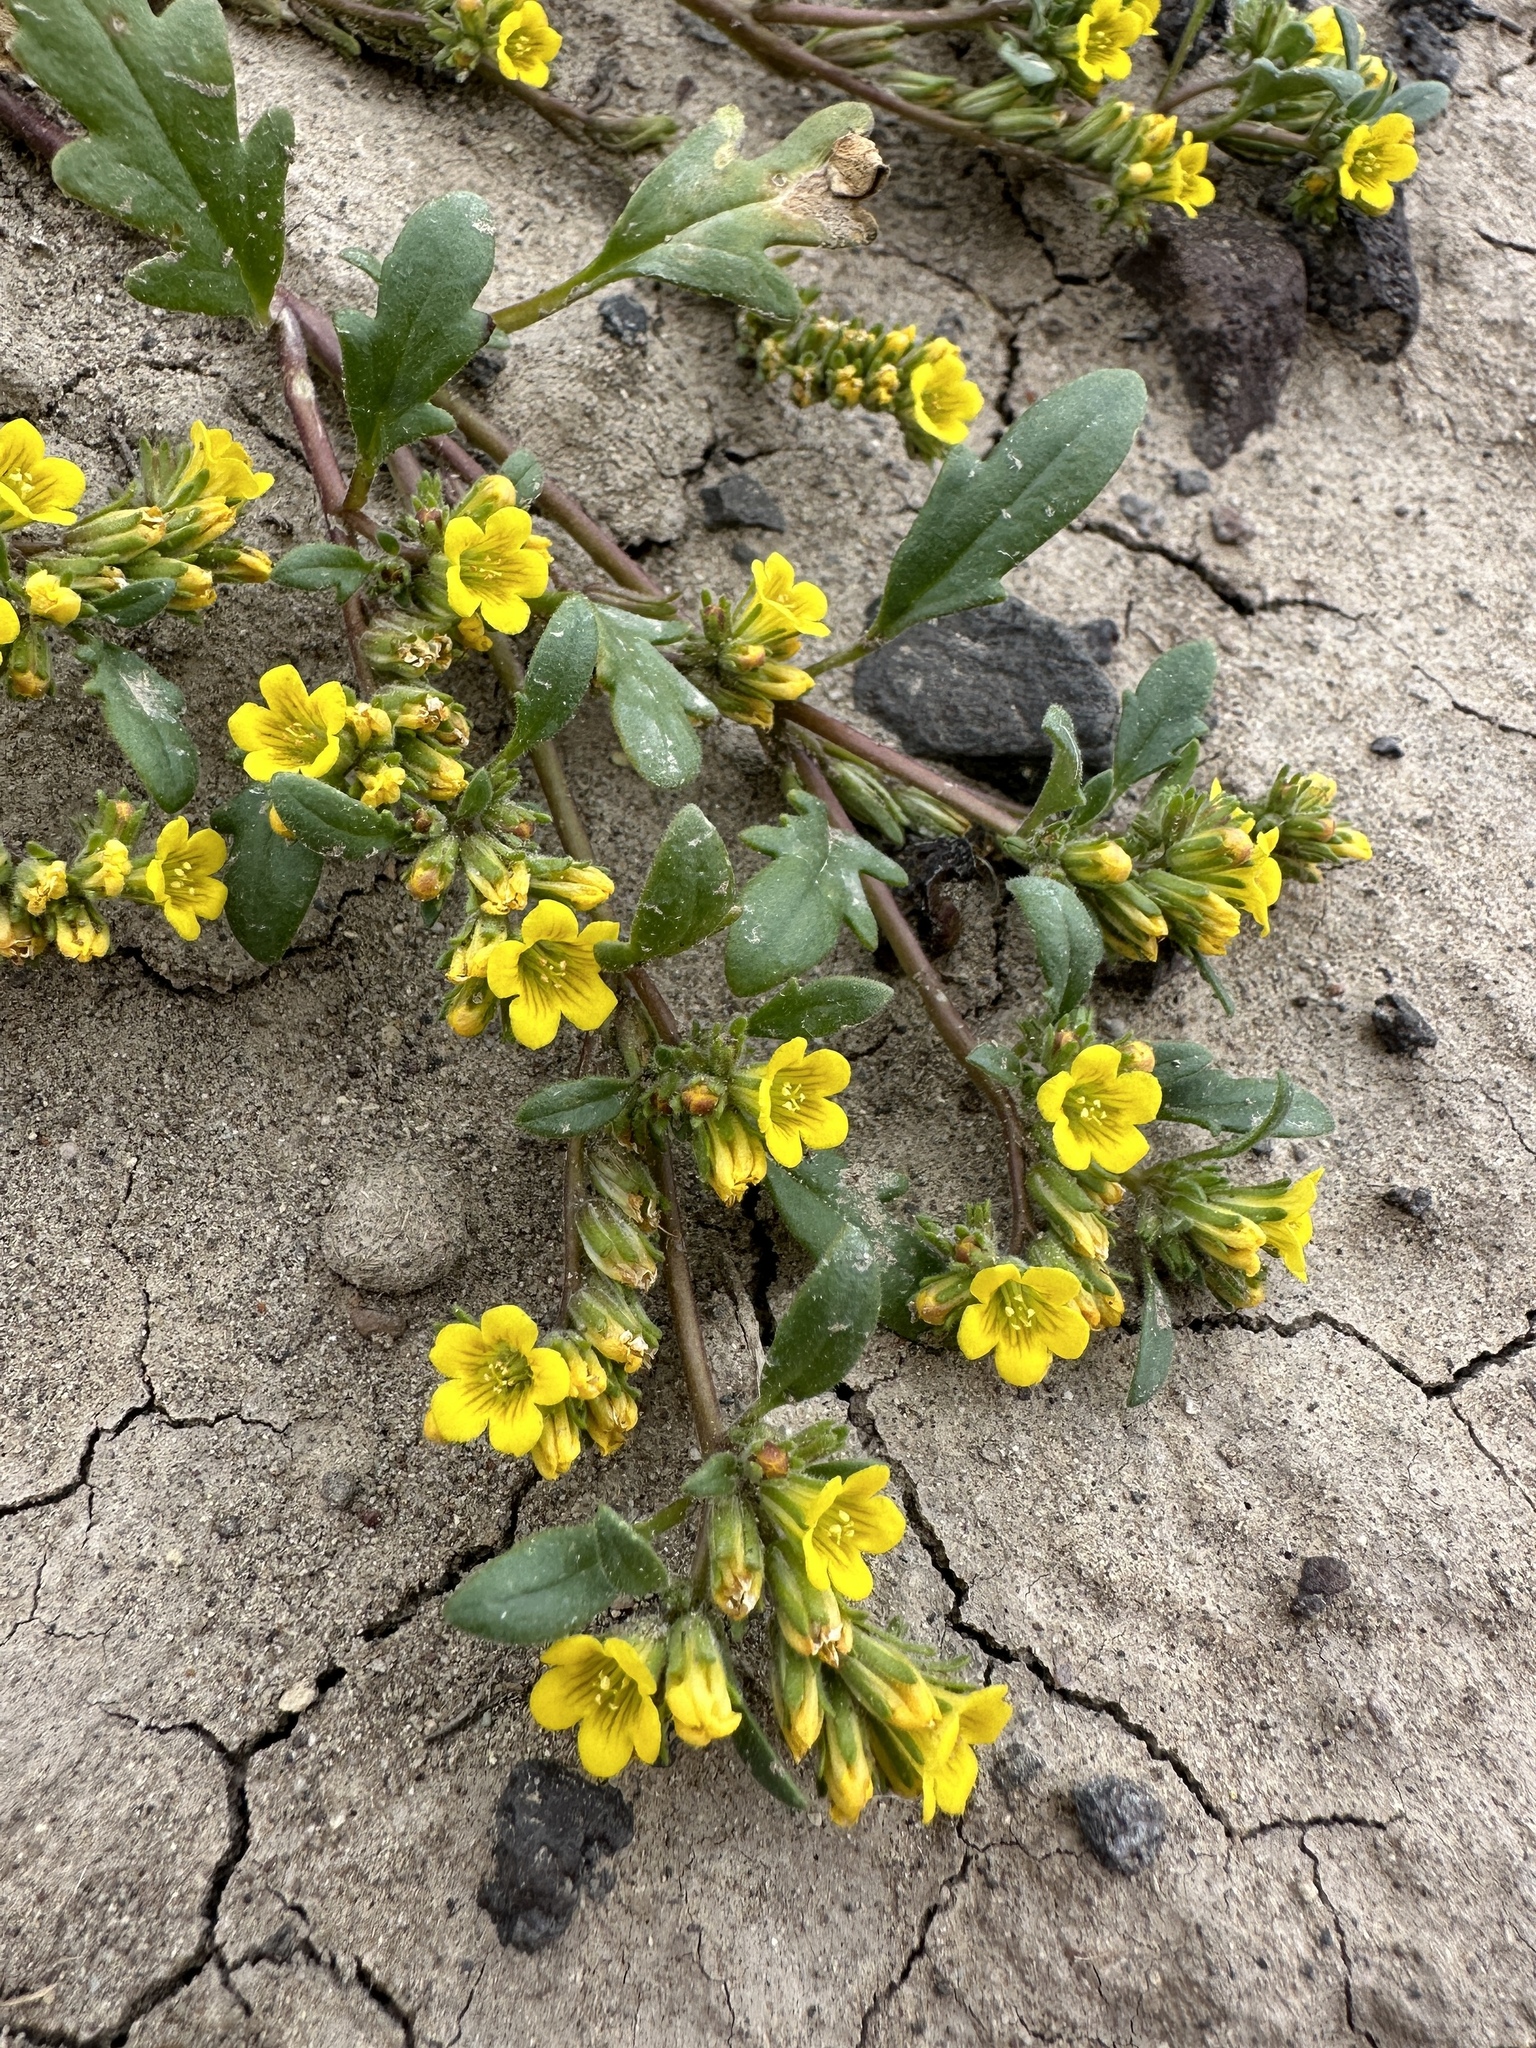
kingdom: Plantae
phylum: Tracheophyta
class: Magnoliopsida
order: Boraginales
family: Hydrophyllaceae
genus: Phacelia
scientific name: Phacelia lutea
